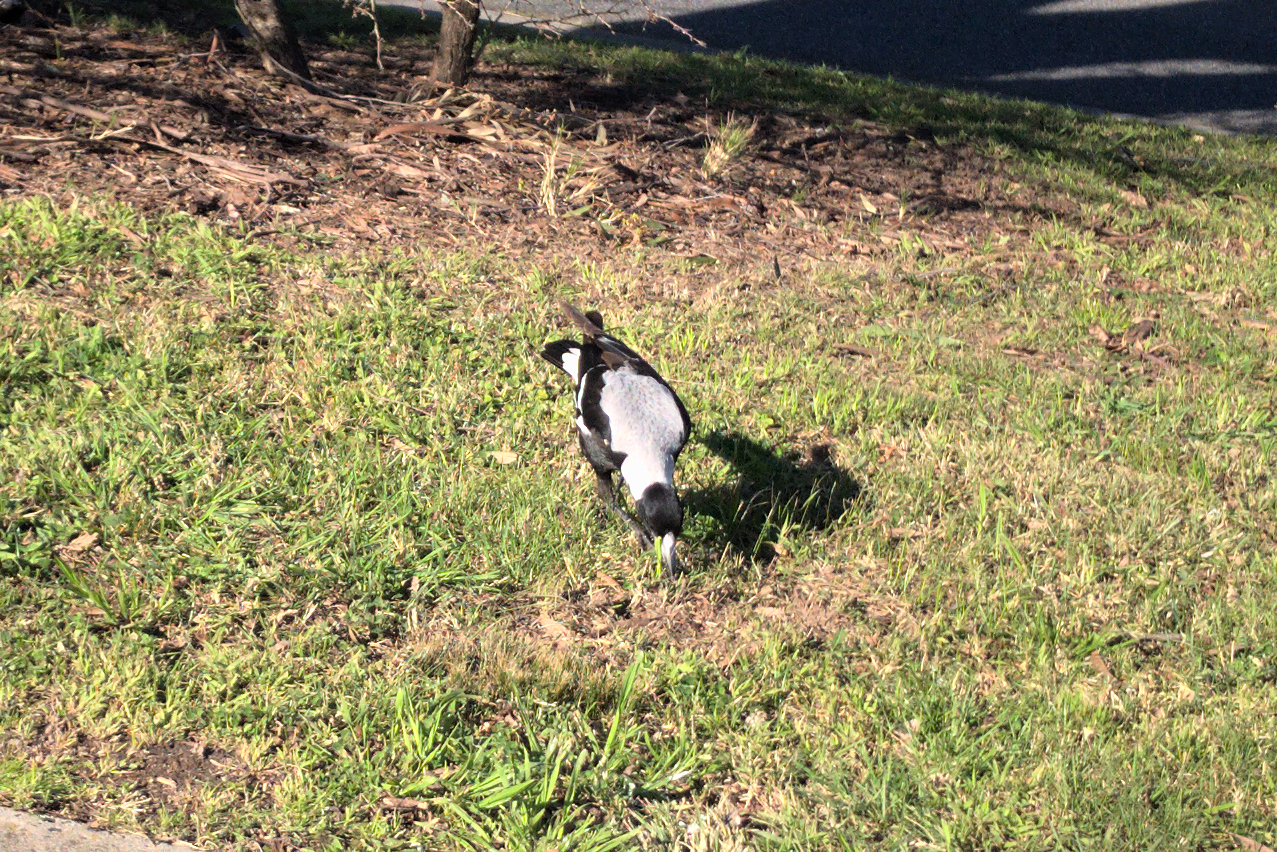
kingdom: Animalia
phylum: Chordata
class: Aves
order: Passeriformes
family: Cracticidae
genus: Gymnorhina
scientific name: Gymnorhina tibicen
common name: Australian magpie
